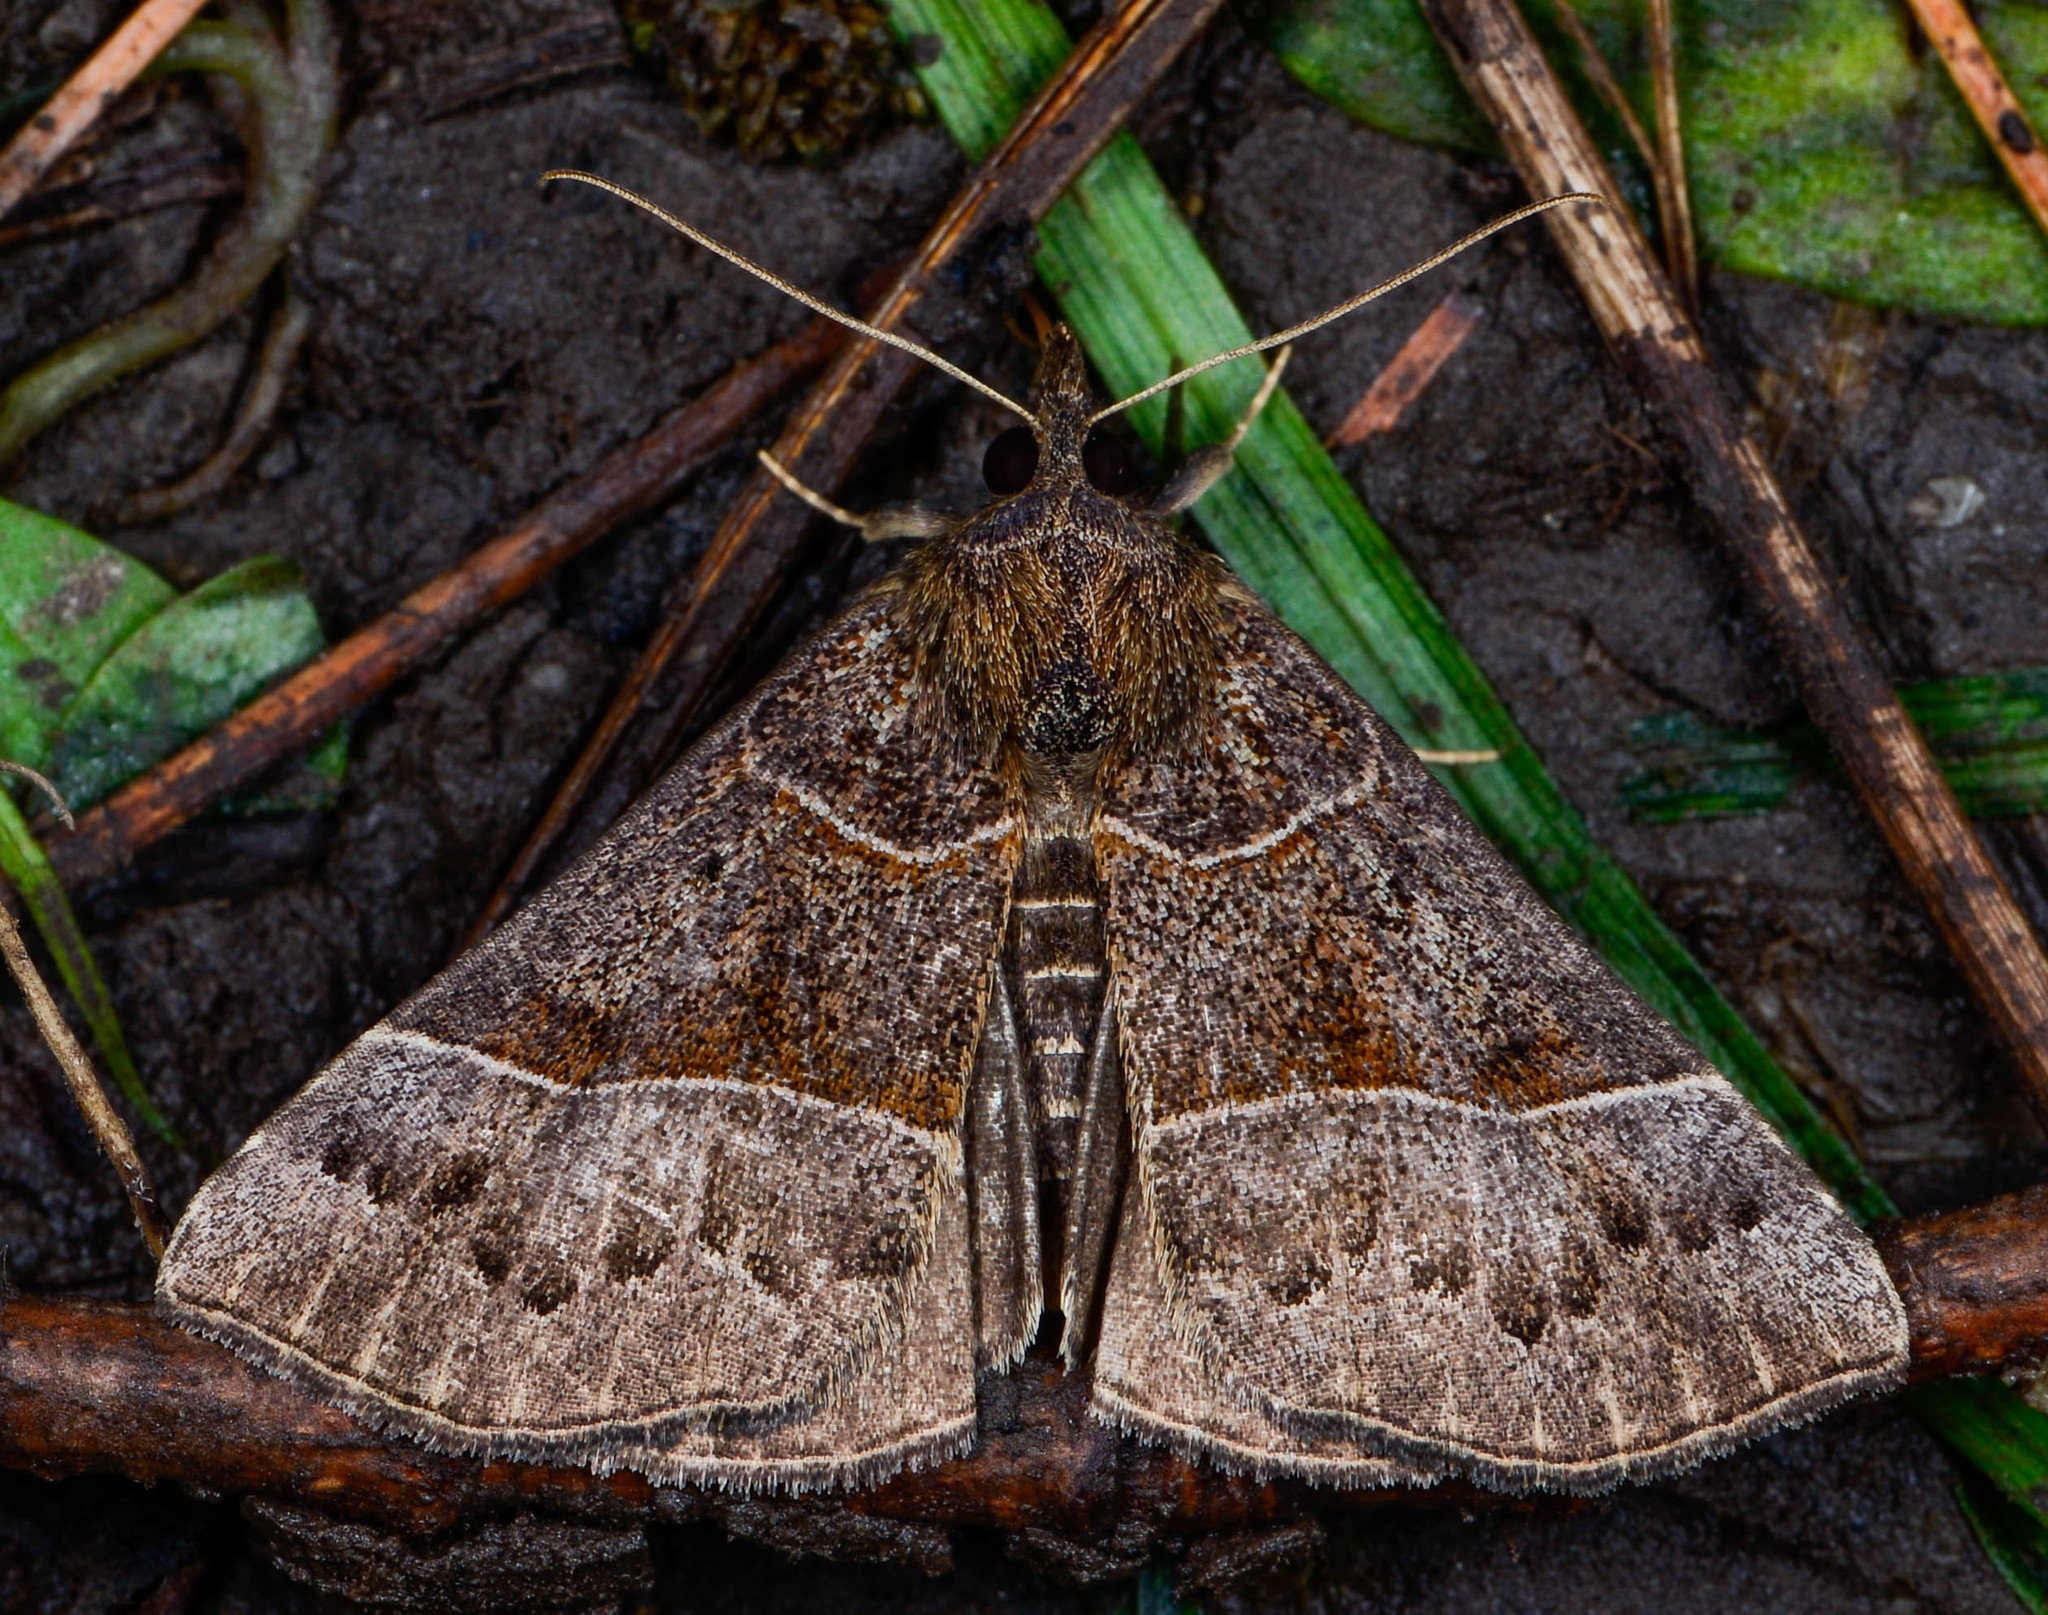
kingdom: Animalia
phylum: Arthropoda
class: Insecta
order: Lepidoptera
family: Erebidae
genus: Hypena
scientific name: Hypena deceptalis
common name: Deceptive snout
